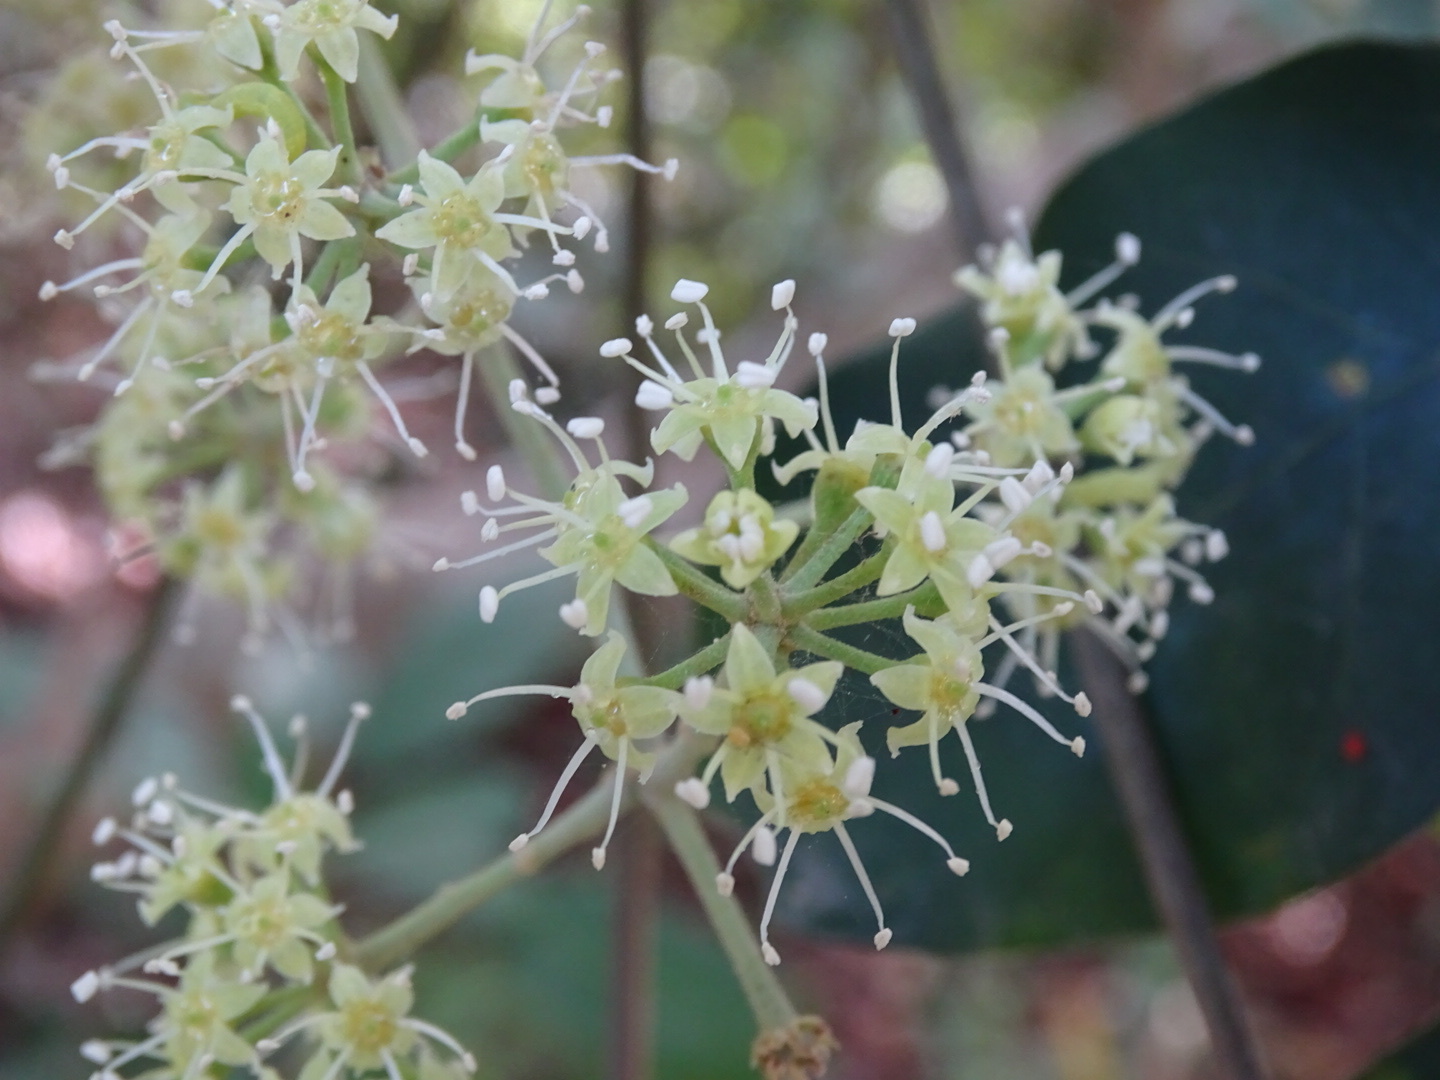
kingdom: Plantae
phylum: Tracheophyta
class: Magnoliopsida
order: Apiales
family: Araliaceae
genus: Heptapleurum
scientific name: Heptapleurum heptaphyllum
